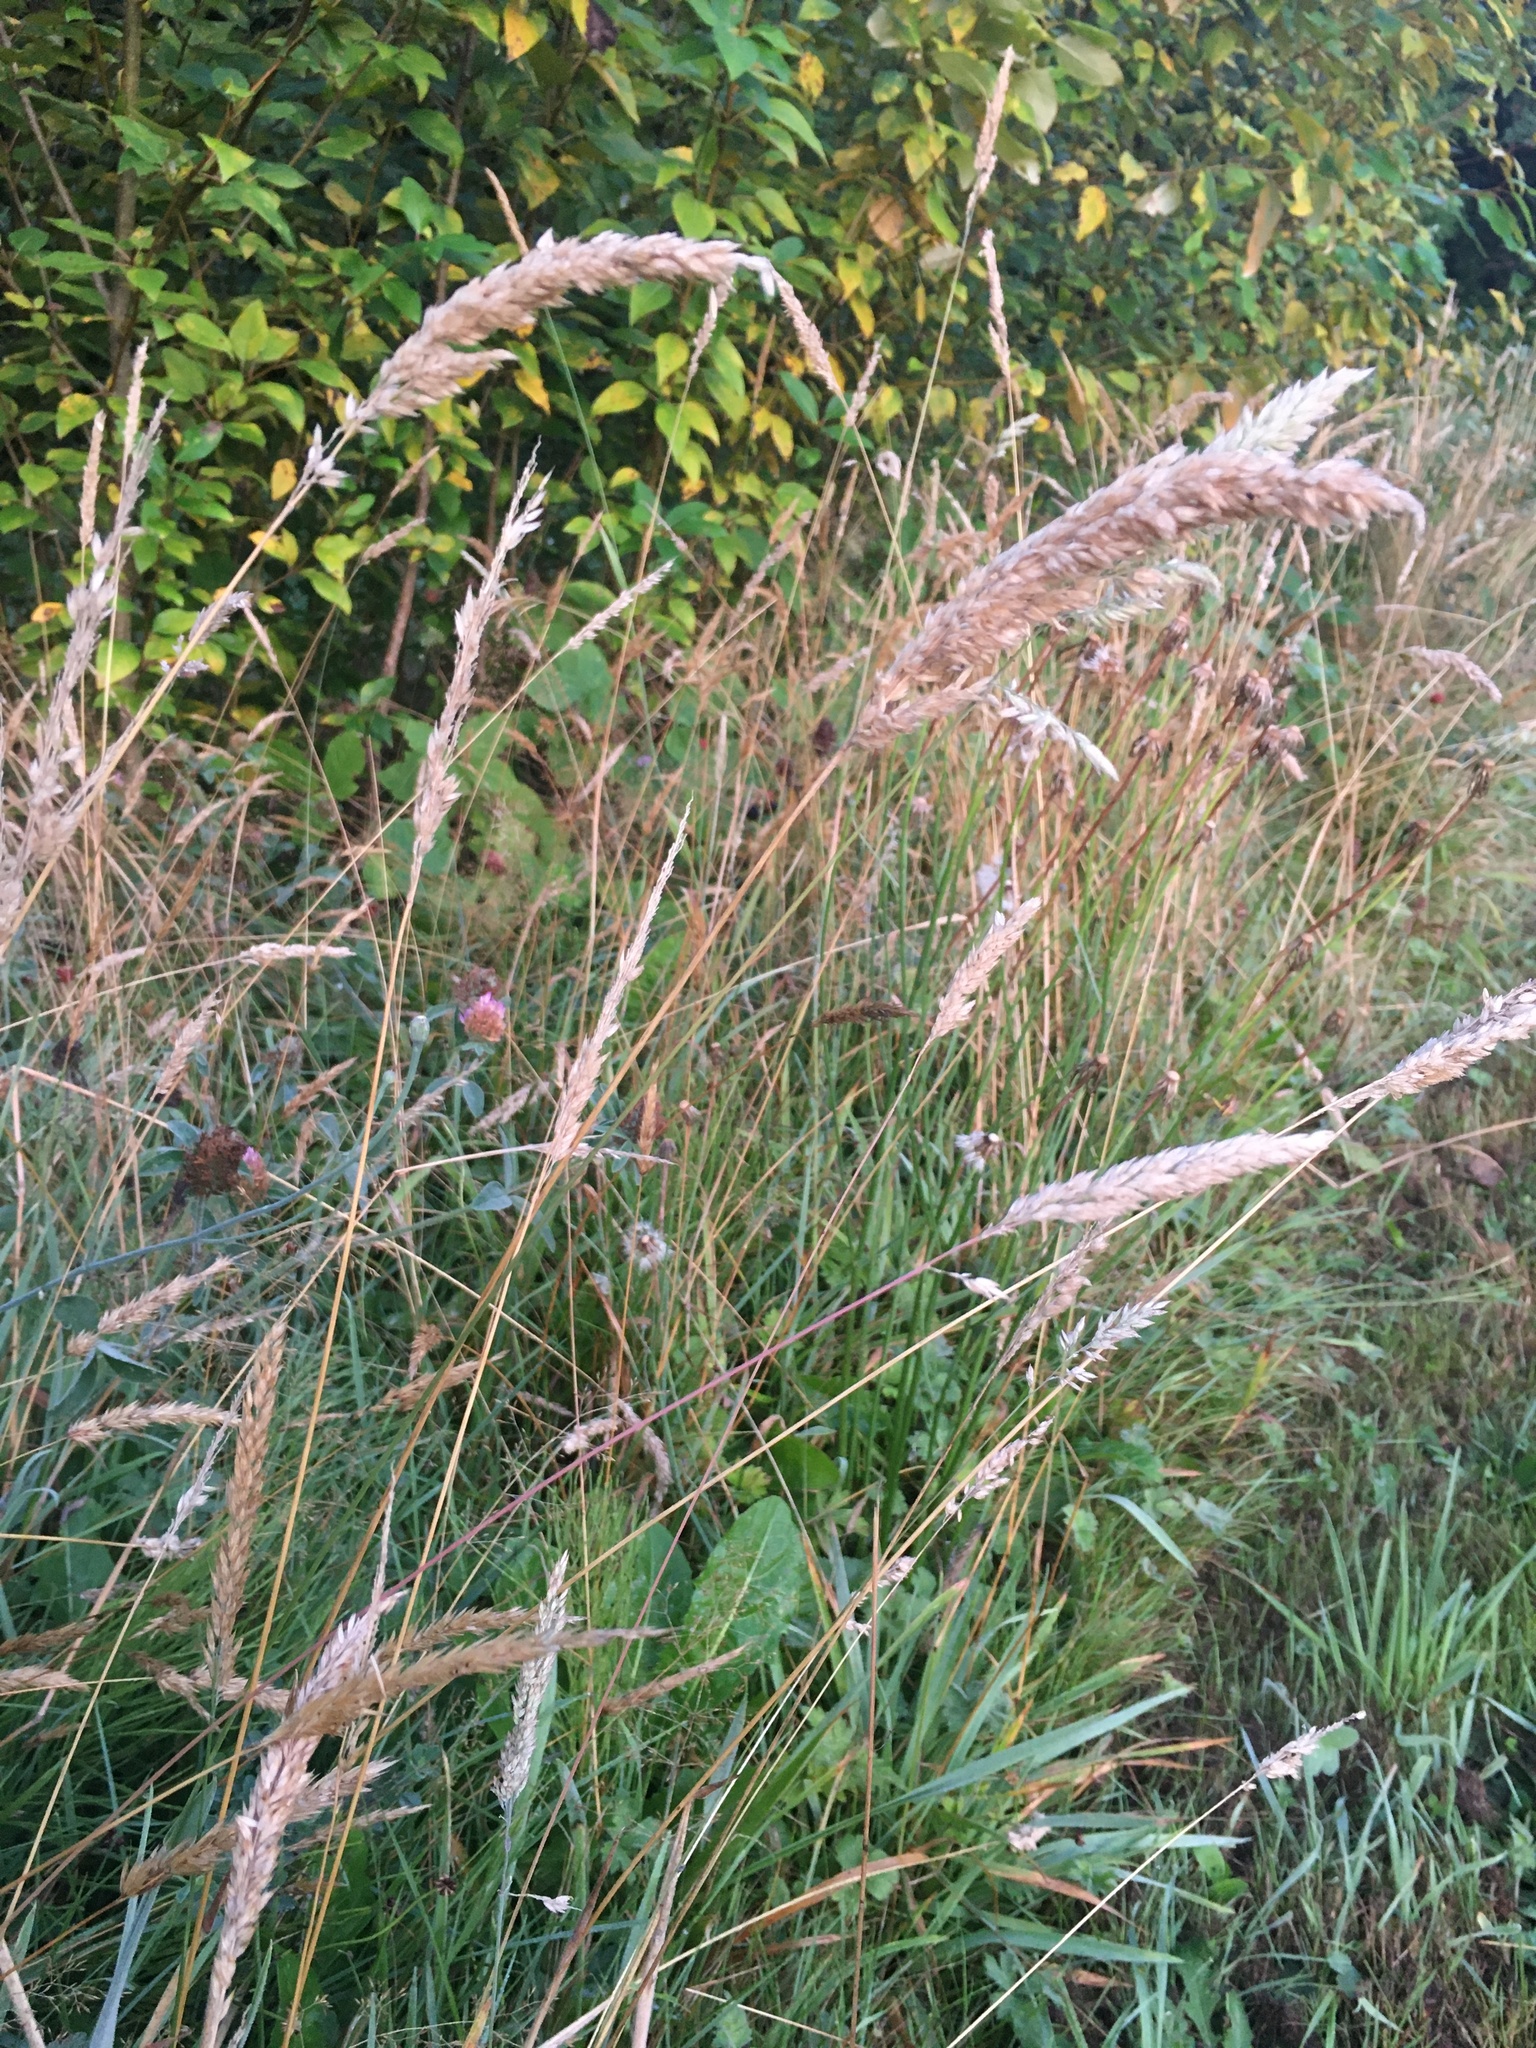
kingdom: Plantae
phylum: Tracheophyta
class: Liliopsida
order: Poales
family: Poaceae
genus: Holcus
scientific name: Holcus lanatus
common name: Yorkshire-fog
